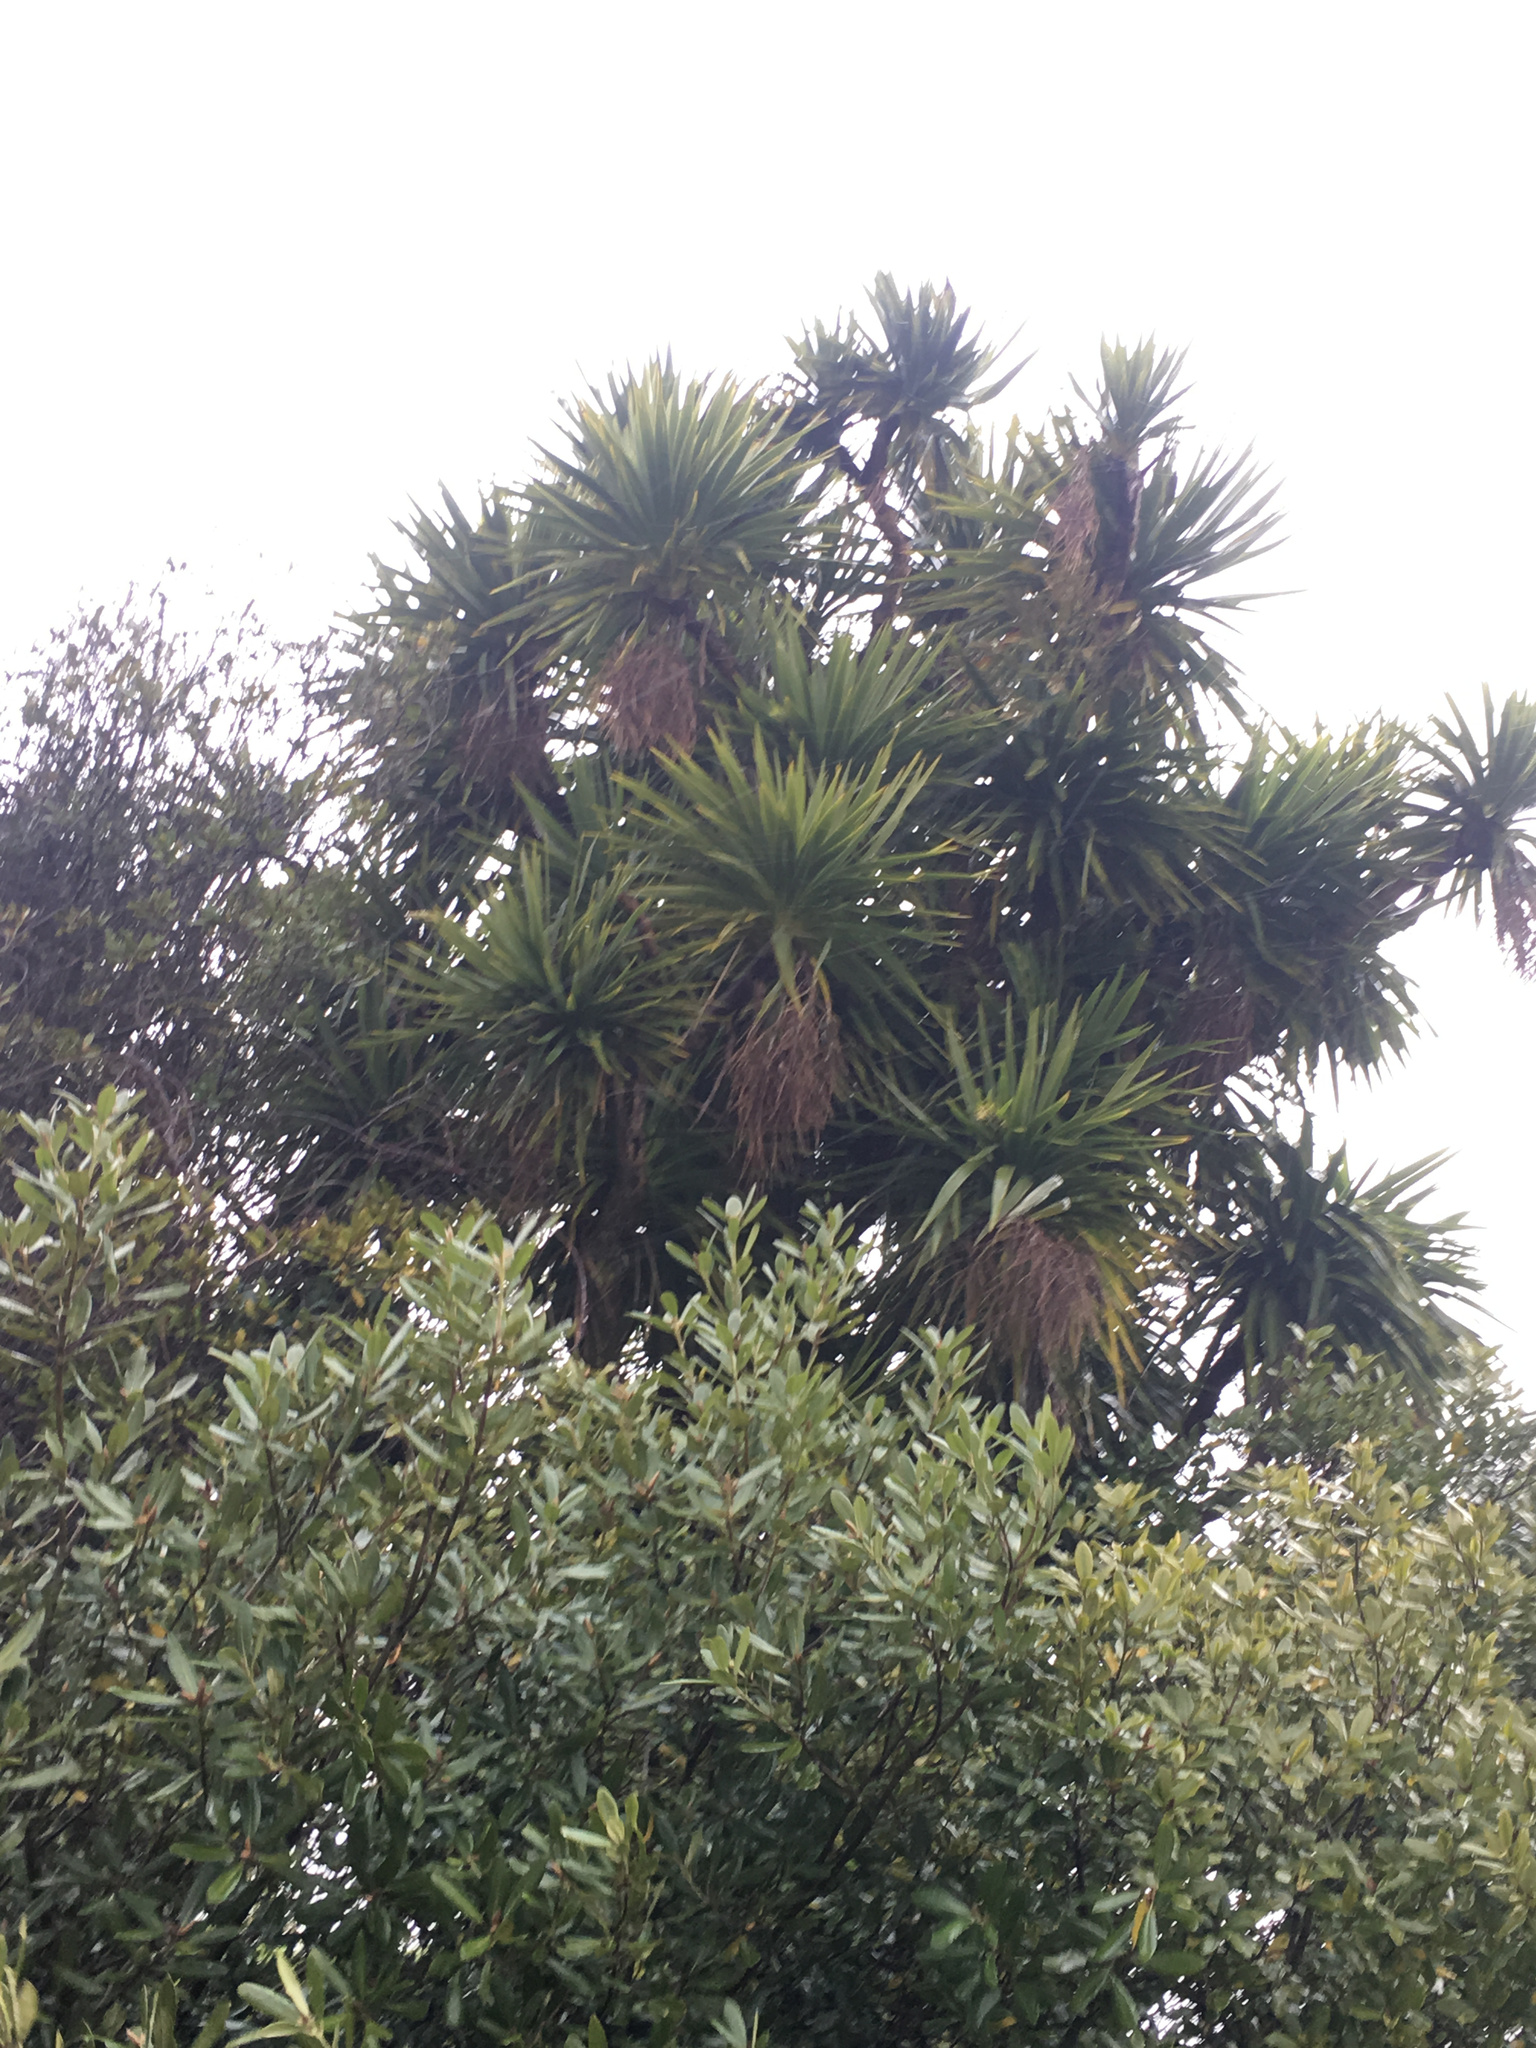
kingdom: Plantae
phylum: Tracheophyta
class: Liliopsida
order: Asparagales
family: Asparagaceae
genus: Cordyline
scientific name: Cordyline australis
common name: Cabbage-palm
